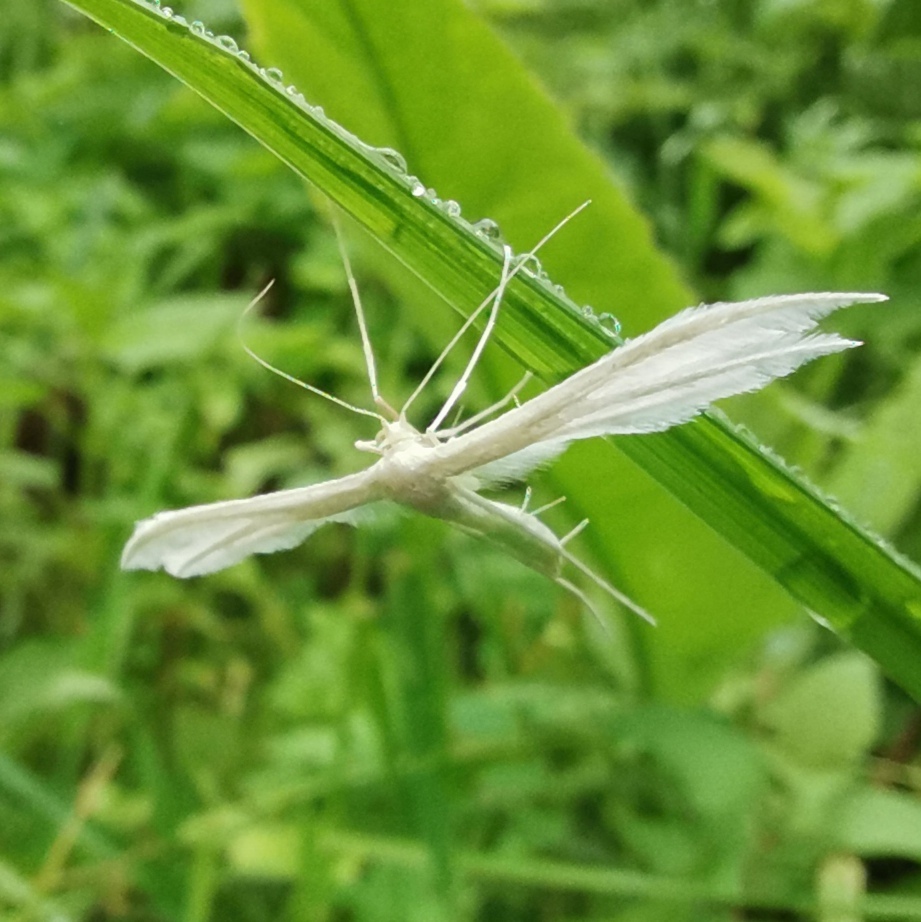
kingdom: Animalia
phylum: Arthropoda
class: Insecta
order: Lepidoptera
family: Pterophoridae
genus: Pterophorus
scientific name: Pterophorus pentadactyla
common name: White plume moth
